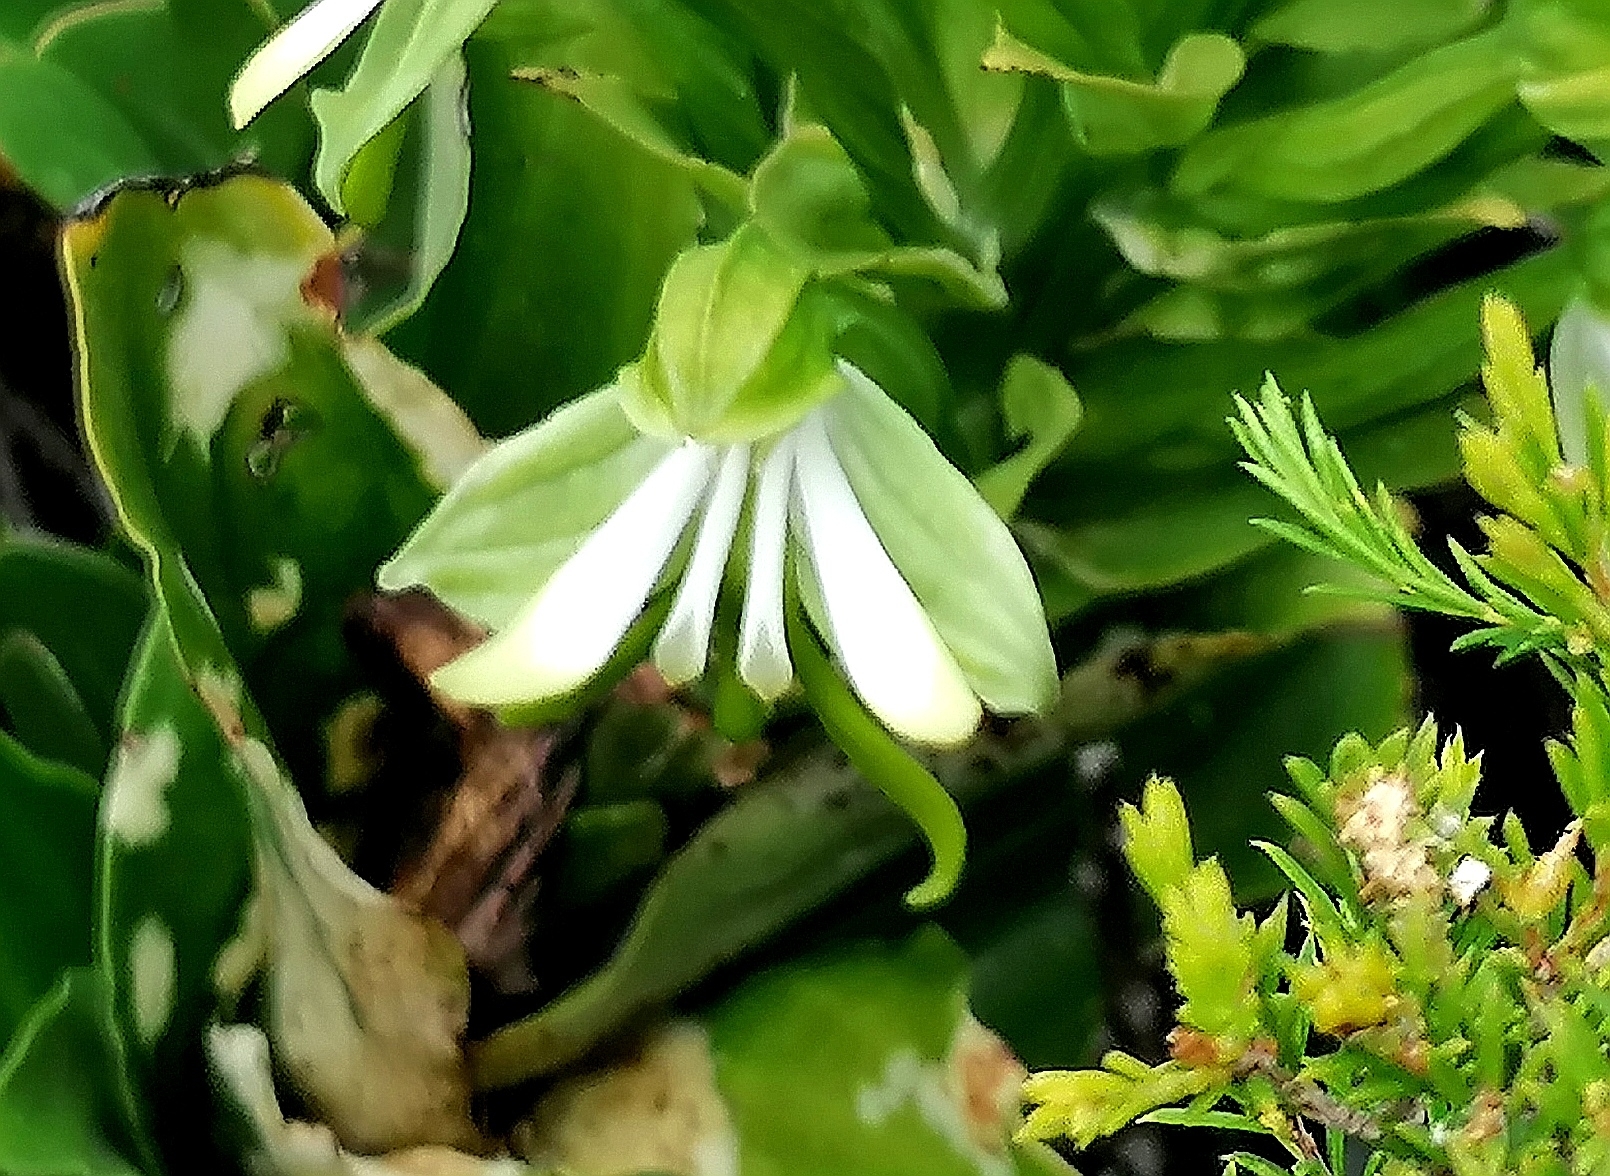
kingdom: Plantae
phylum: Tracheophyta
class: Liliopsida
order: Asparagales
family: Orchidaceae
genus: Bonatea
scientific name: Bonatea speciosa
